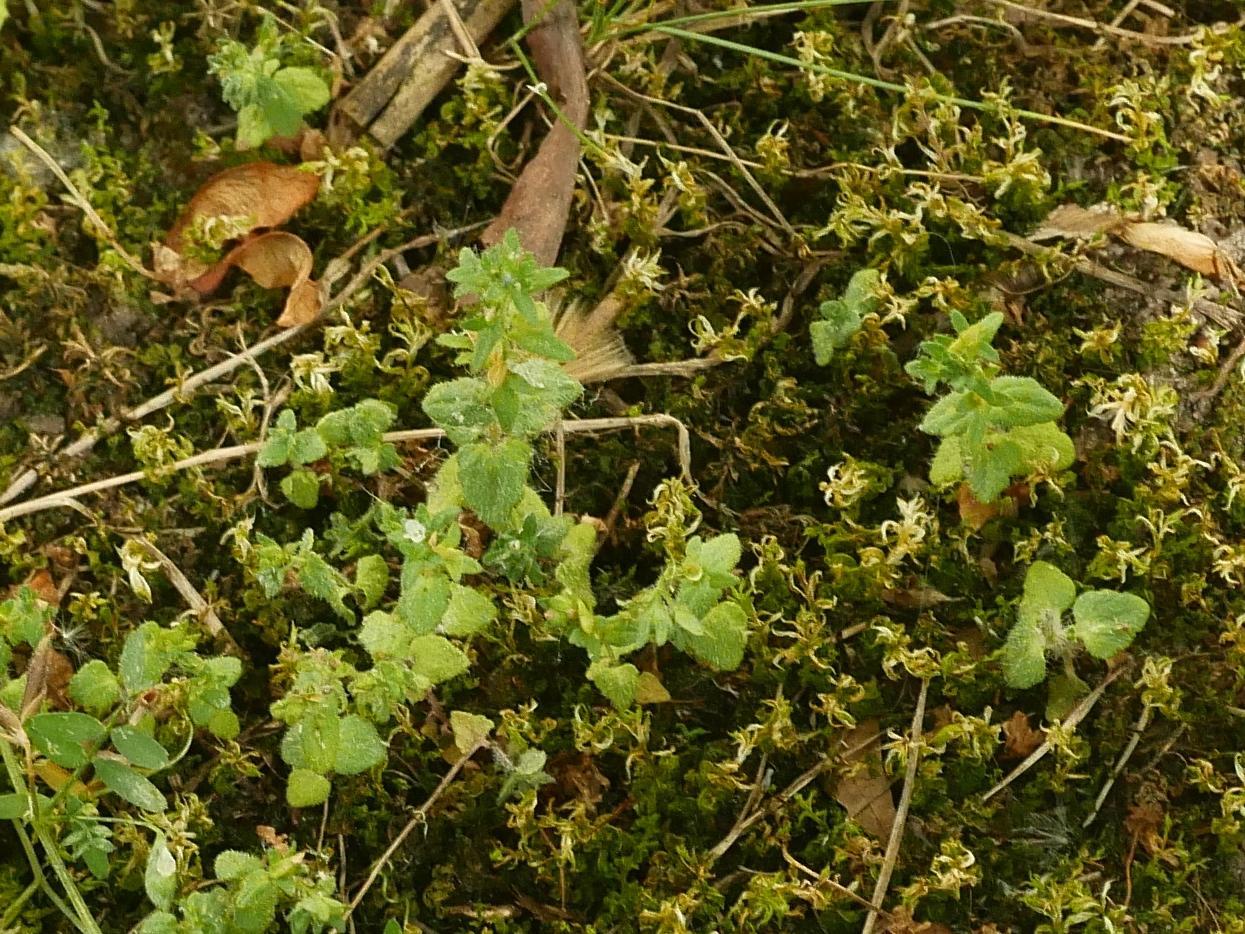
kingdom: Plantae
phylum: Tracheophyta
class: Magnoliopsida
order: Lamiales
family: Plantaginaceae
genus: Veronica
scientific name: Veronica arvensis
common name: Corn speedwell
